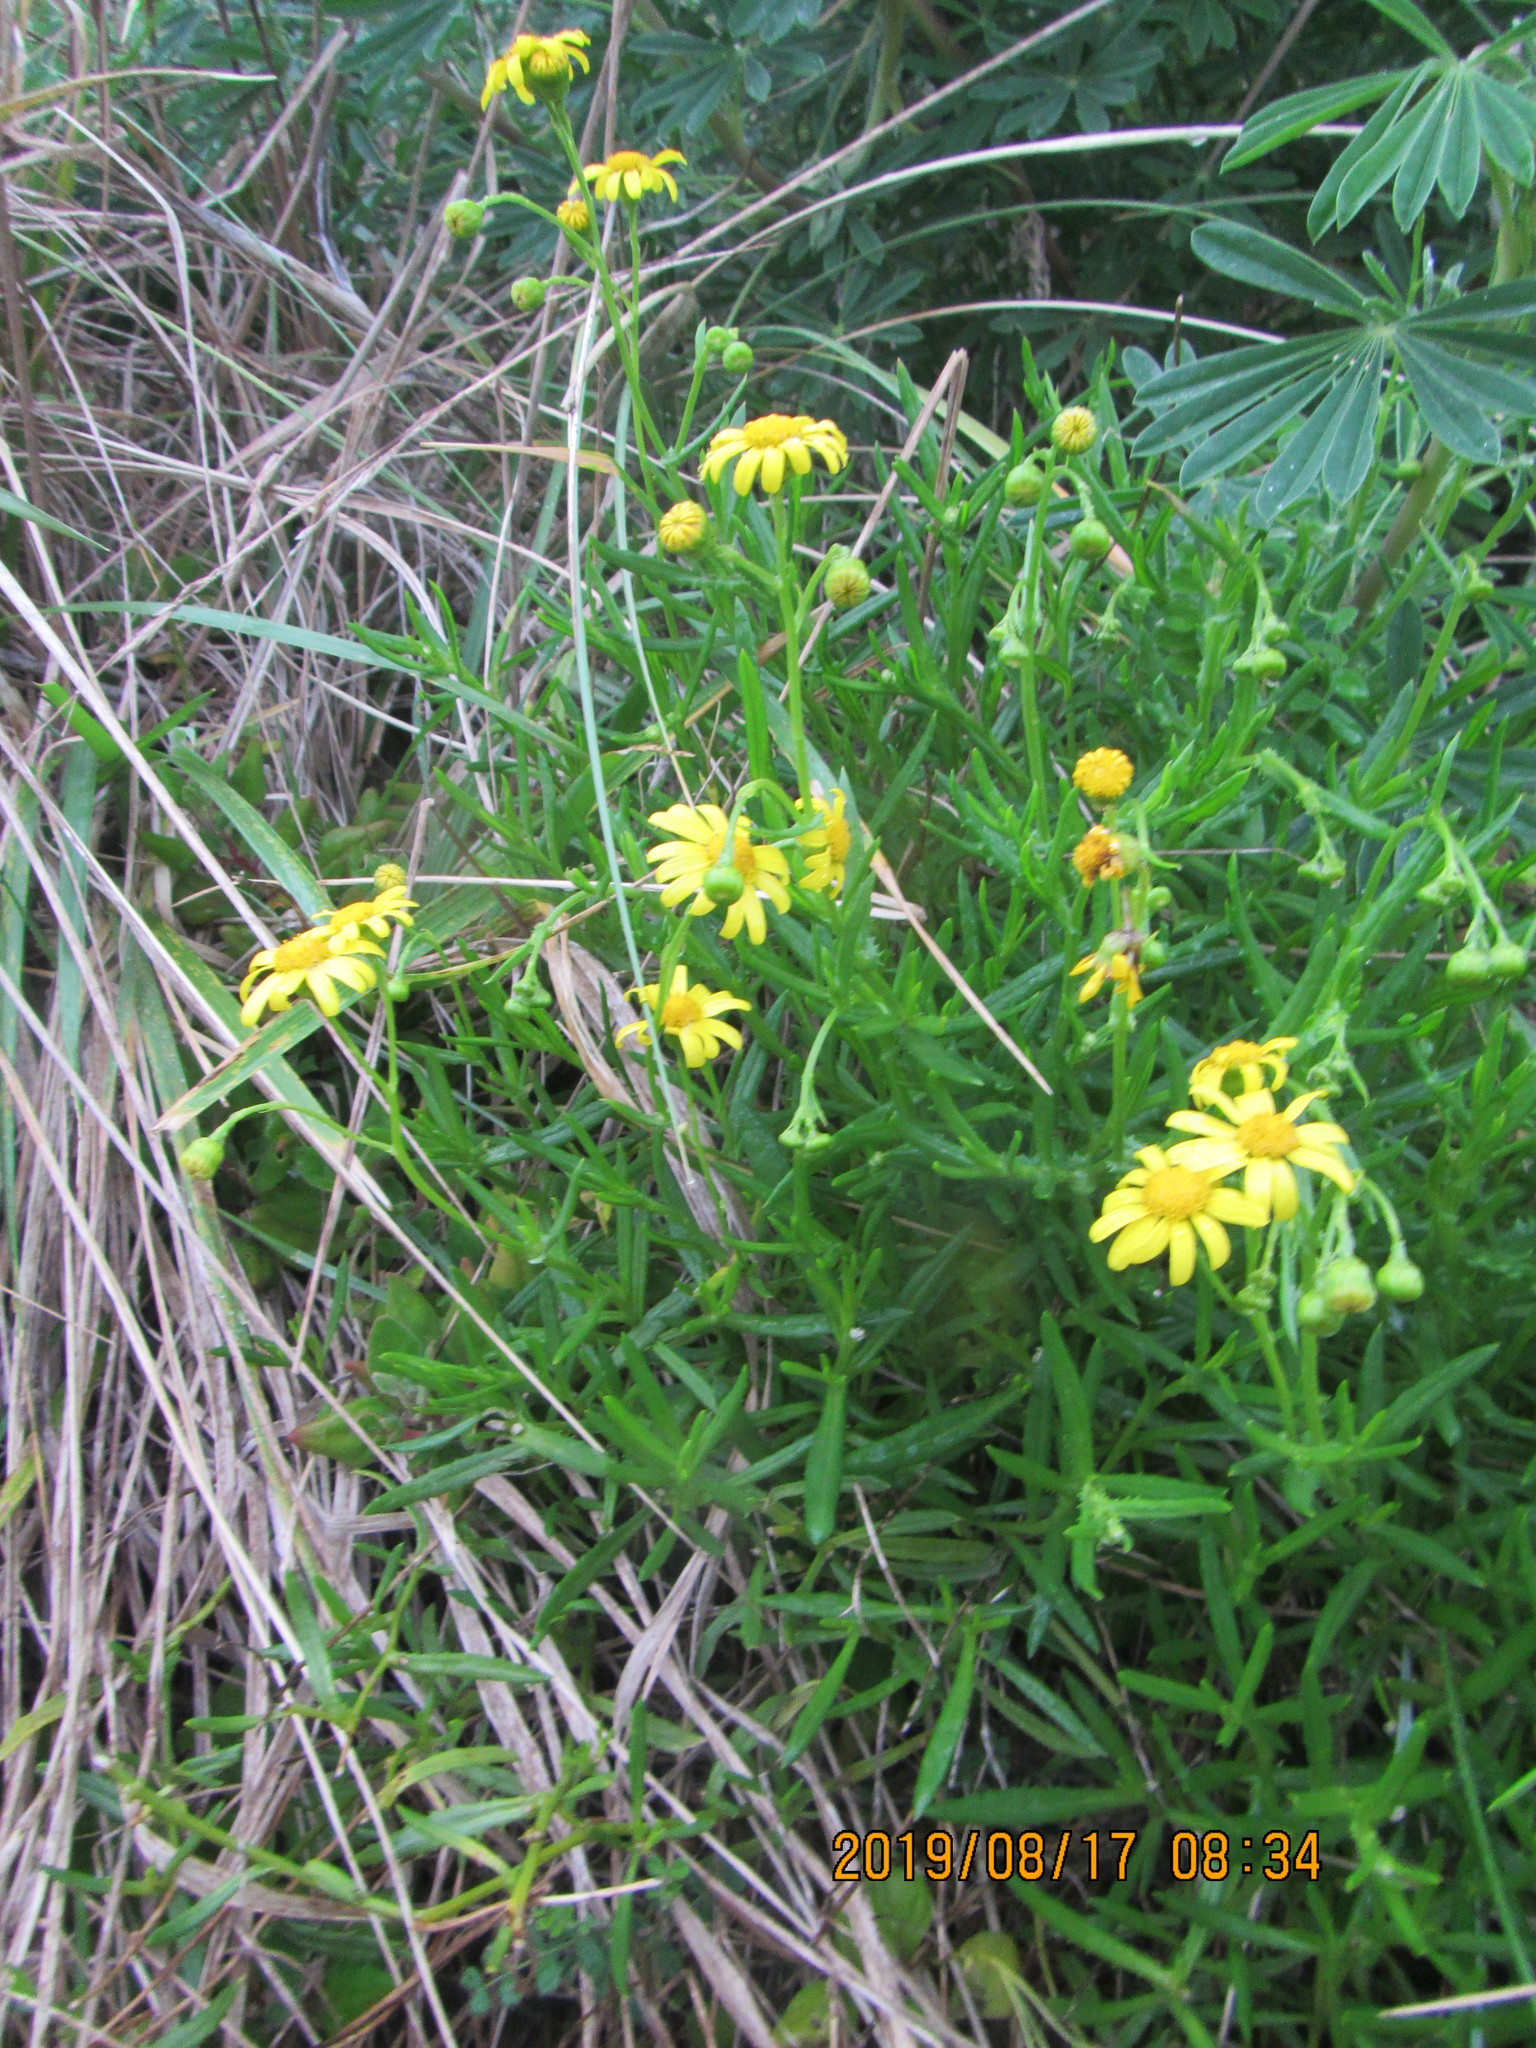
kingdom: Plantae
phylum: Tracheophyta
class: Magnoliopsida
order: Asterales
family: Asteraceae
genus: Senecio
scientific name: Senecio skirrhodon
